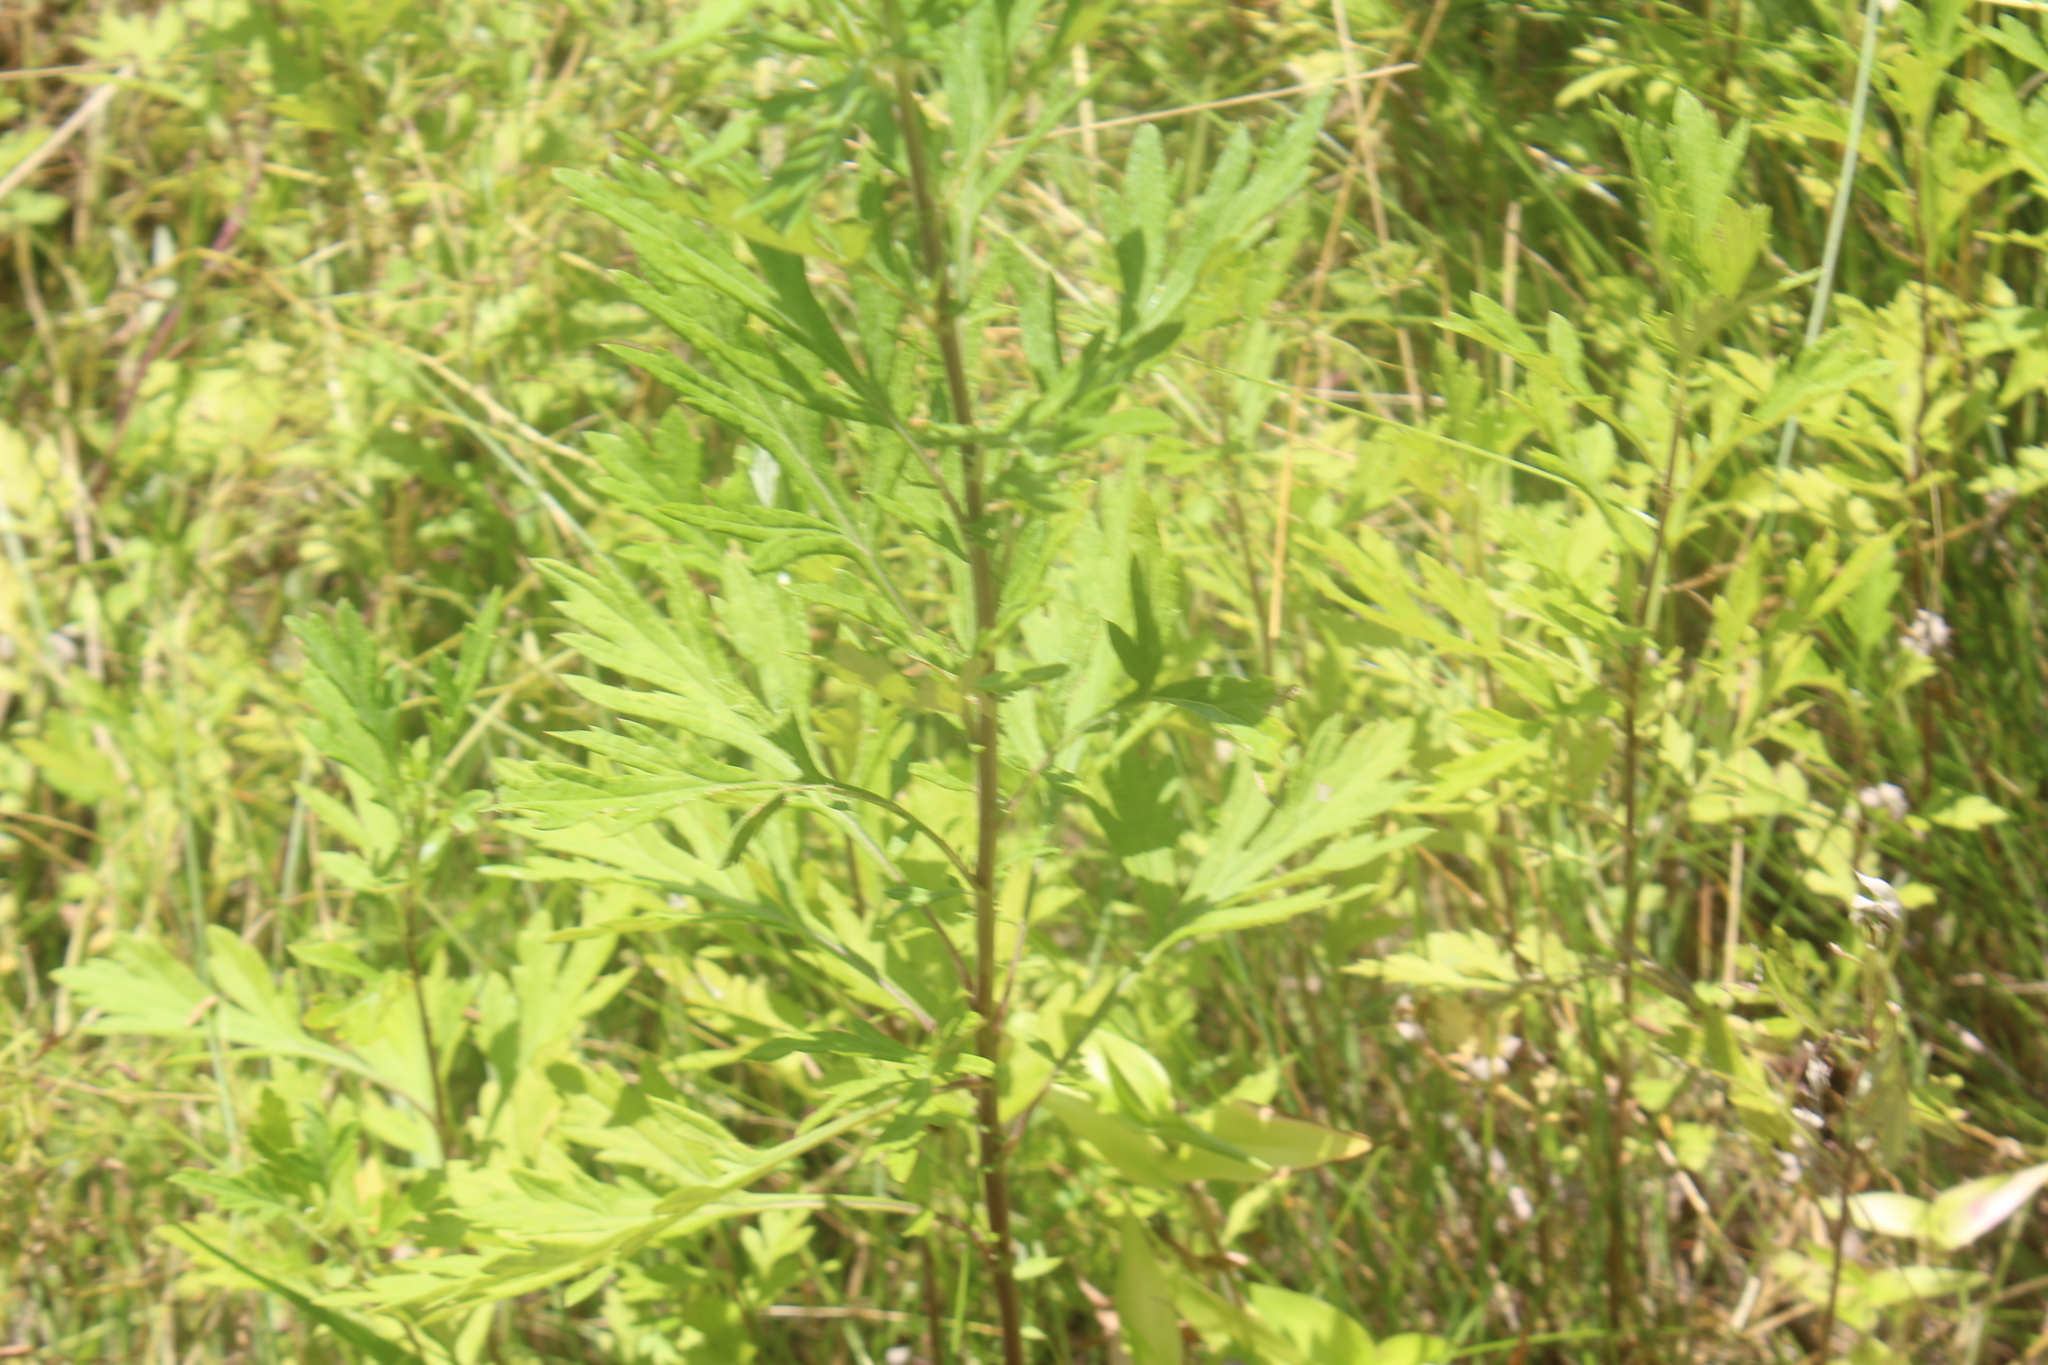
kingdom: Plantae
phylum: Tracheophyta
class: Magnoliopsida
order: Asterales
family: Asteraceae
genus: Artemisia
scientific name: Artemisia vulgaris
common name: Mugwort
